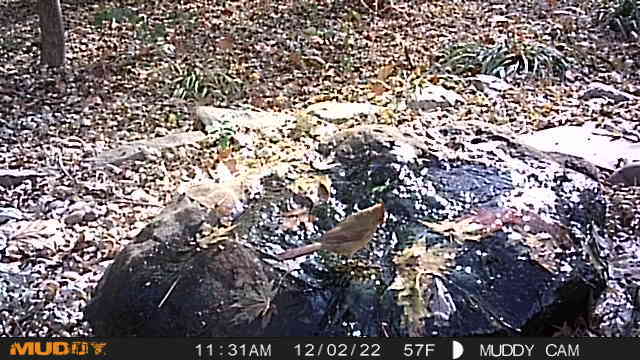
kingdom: Animalia
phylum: Chordata
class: Aves
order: Passeriformes
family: Cardinalidae
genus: Cardinalis
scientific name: Cardinalis cardinalis
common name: Northern cardinal
